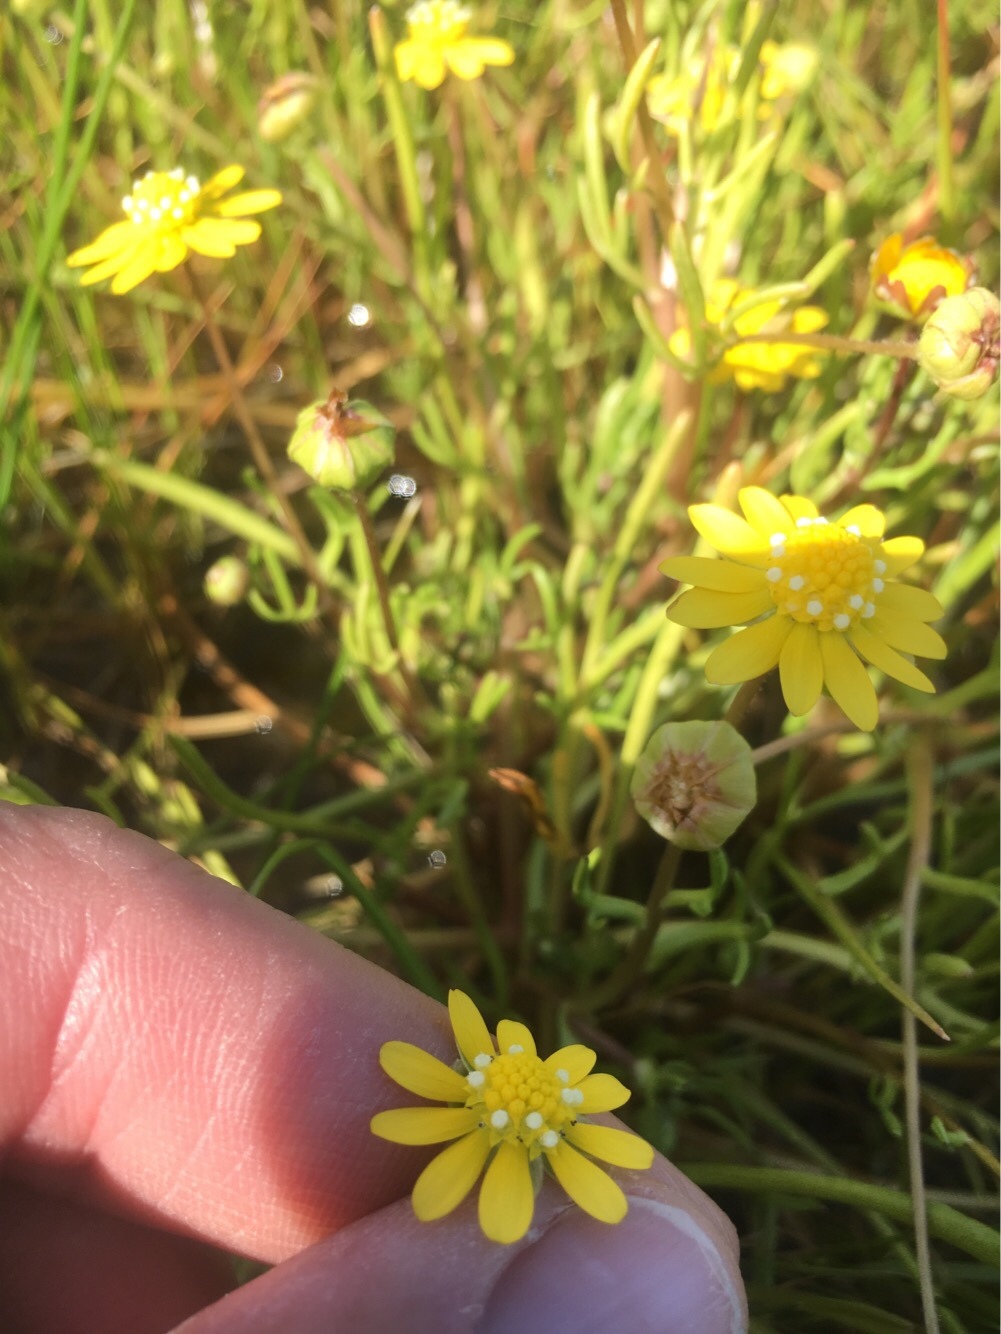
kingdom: Plantae
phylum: Tracheophyta
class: Magnoliopsida
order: Asterales
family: Asteraceae
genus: Blennosperma
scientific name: Blennosperma bakeri
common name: Sonoma sunshine
